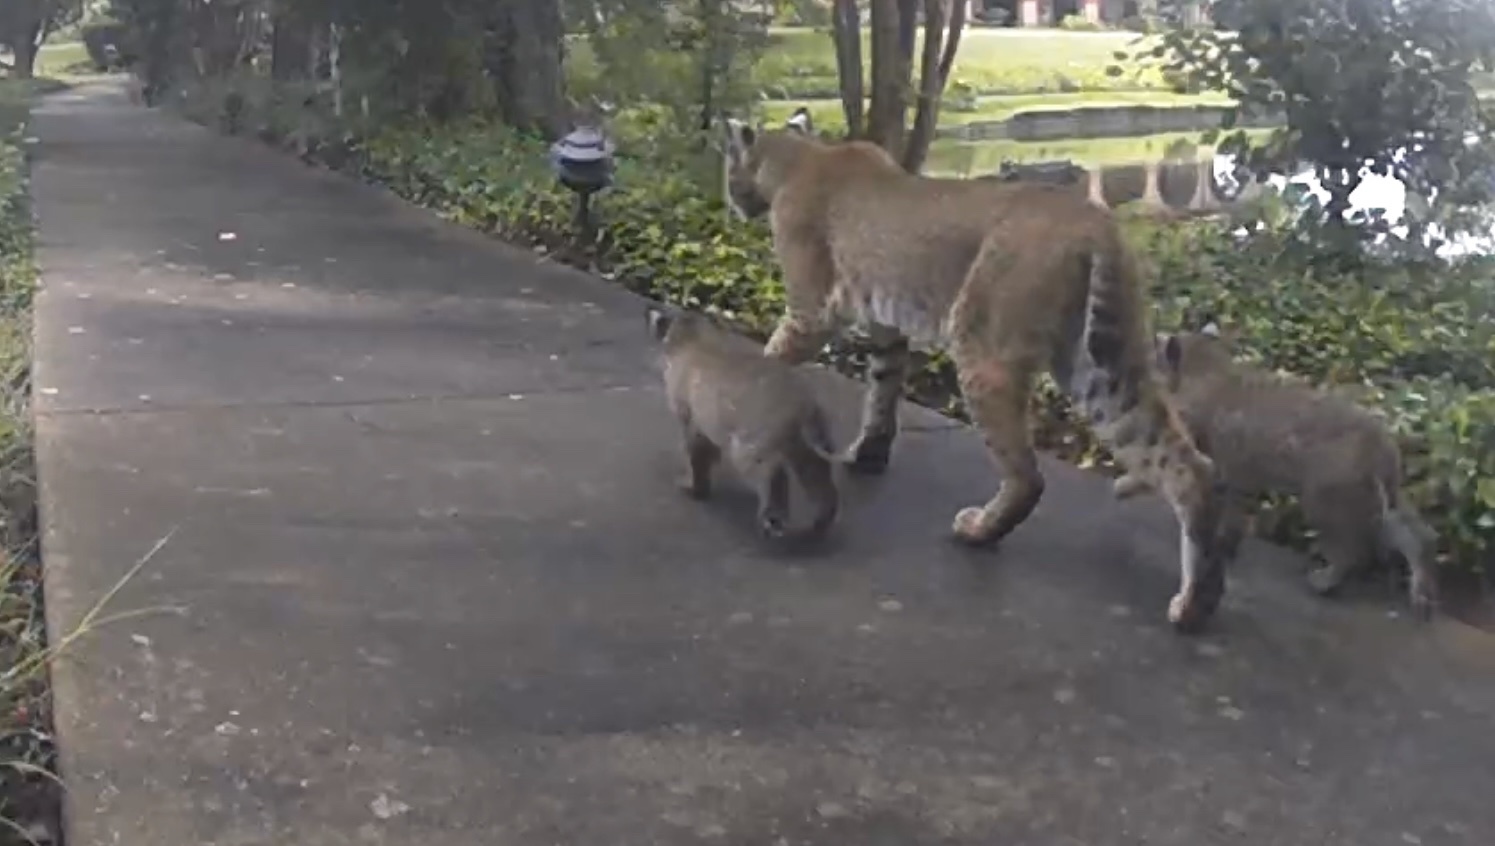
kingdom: Animalia
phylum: Chordata
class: Mammalia
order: Carnivora
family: Felidae
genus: Lynx
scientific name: Lynx rufus
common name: Bobcat
